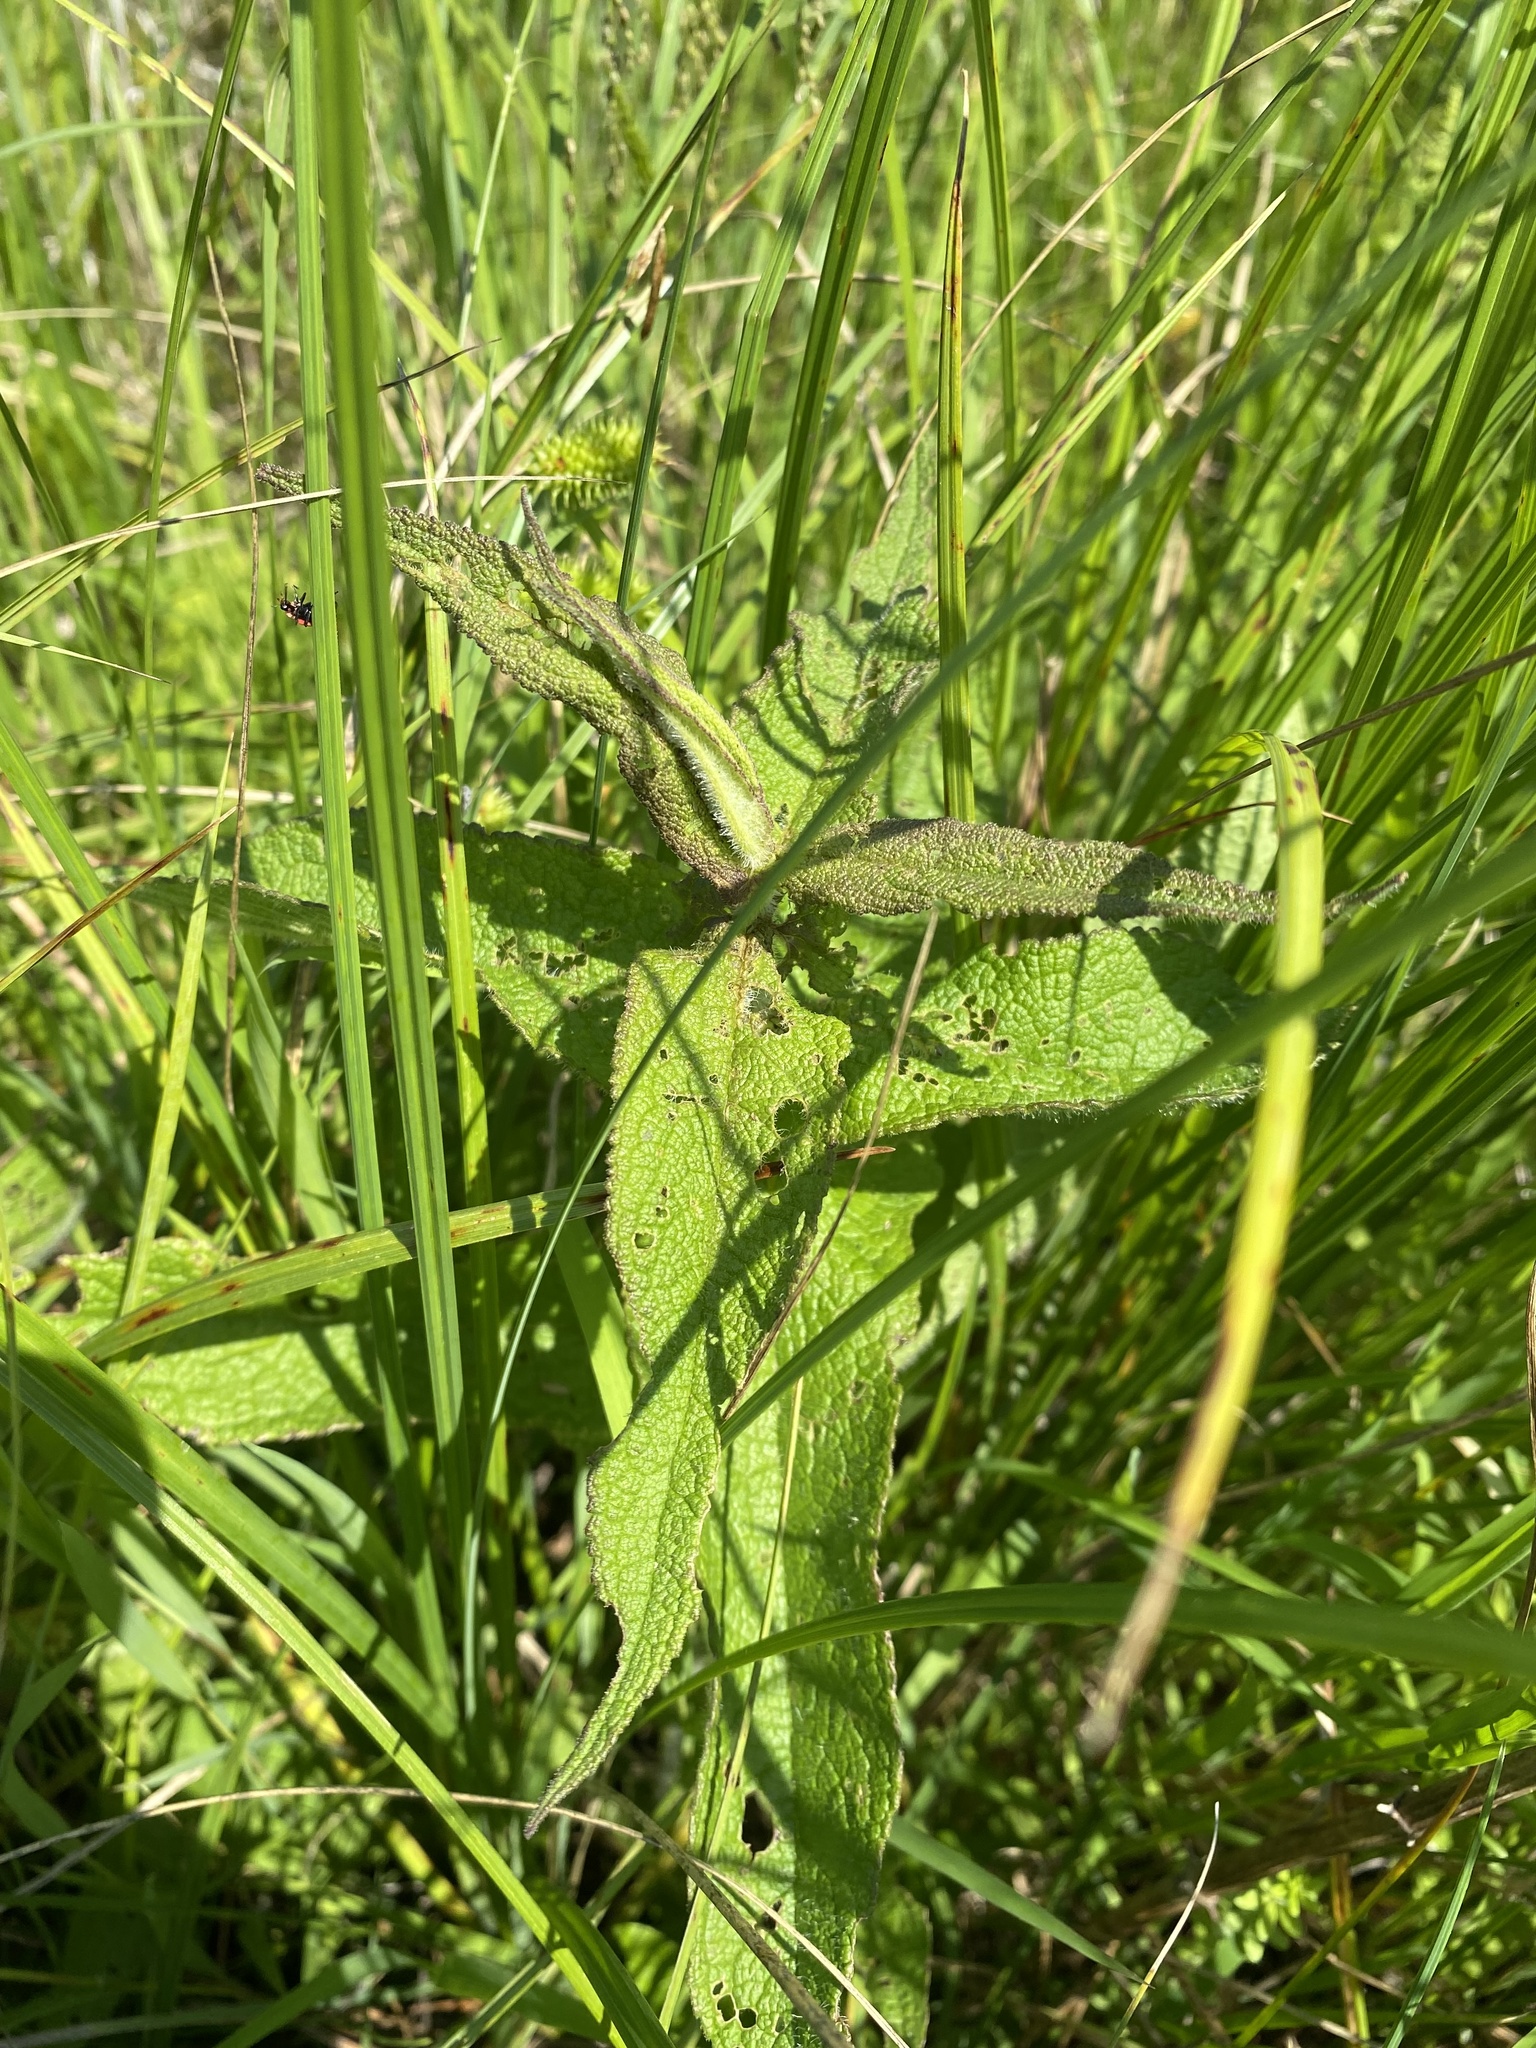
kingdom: Plantae
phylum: Tracheophyta
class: Magnoliopsida
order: Asterales
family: Asteraceae
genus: Eupatorium
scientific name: Eupatorium perfoliatum
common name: Boneset
